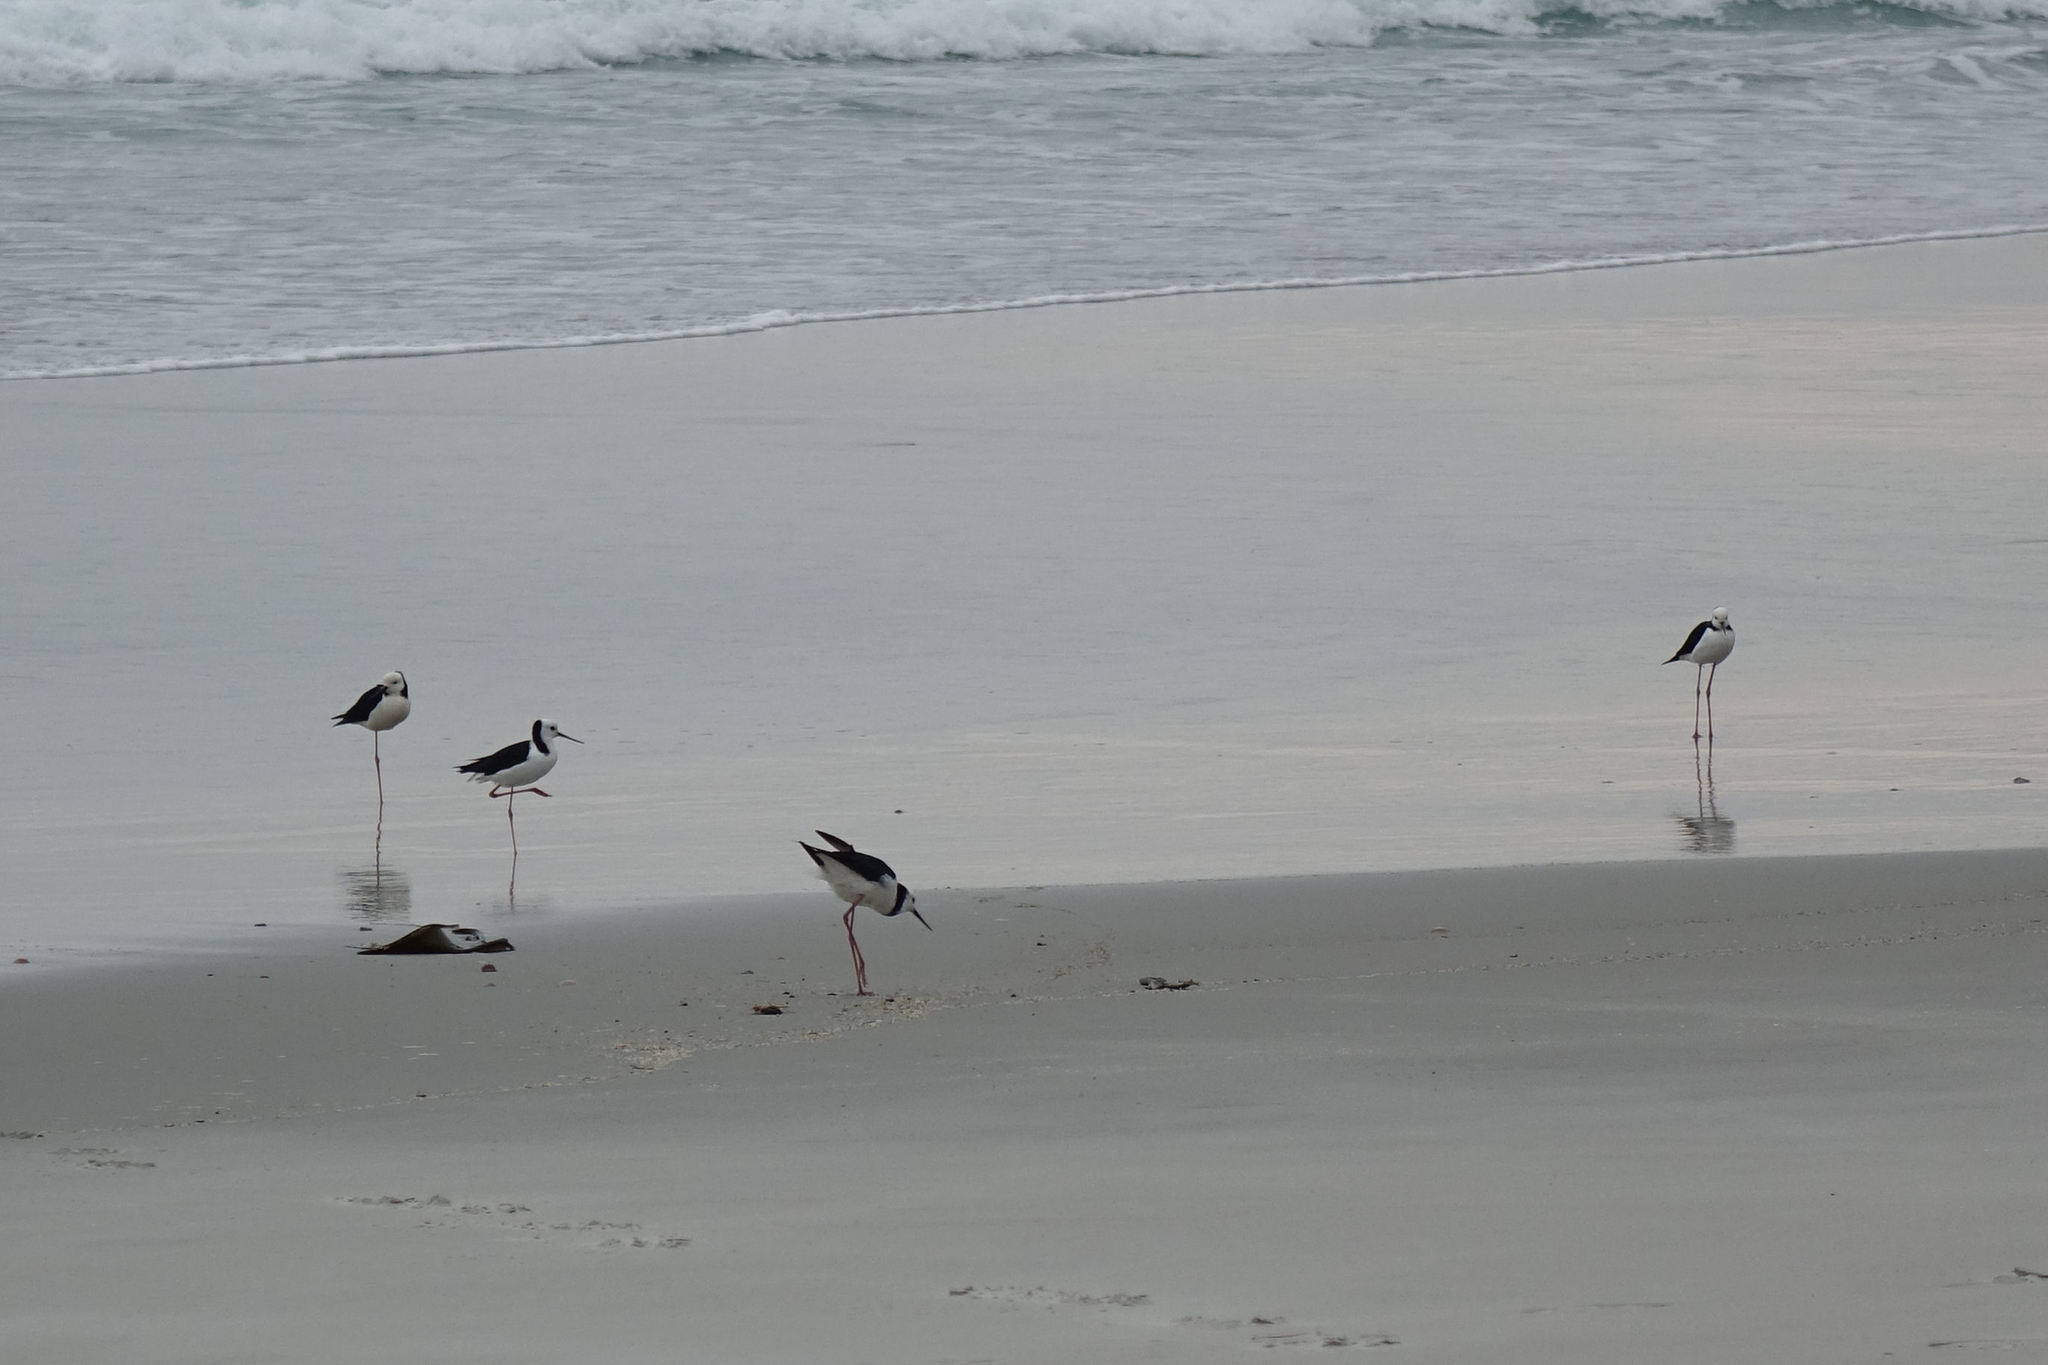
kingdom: Animalia
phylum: Chordata
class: Aves
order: Charadriiformes
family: Recurvirostridae
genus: Himantopus
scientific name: Himantopus leucocephalus
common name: White-headed stilt
